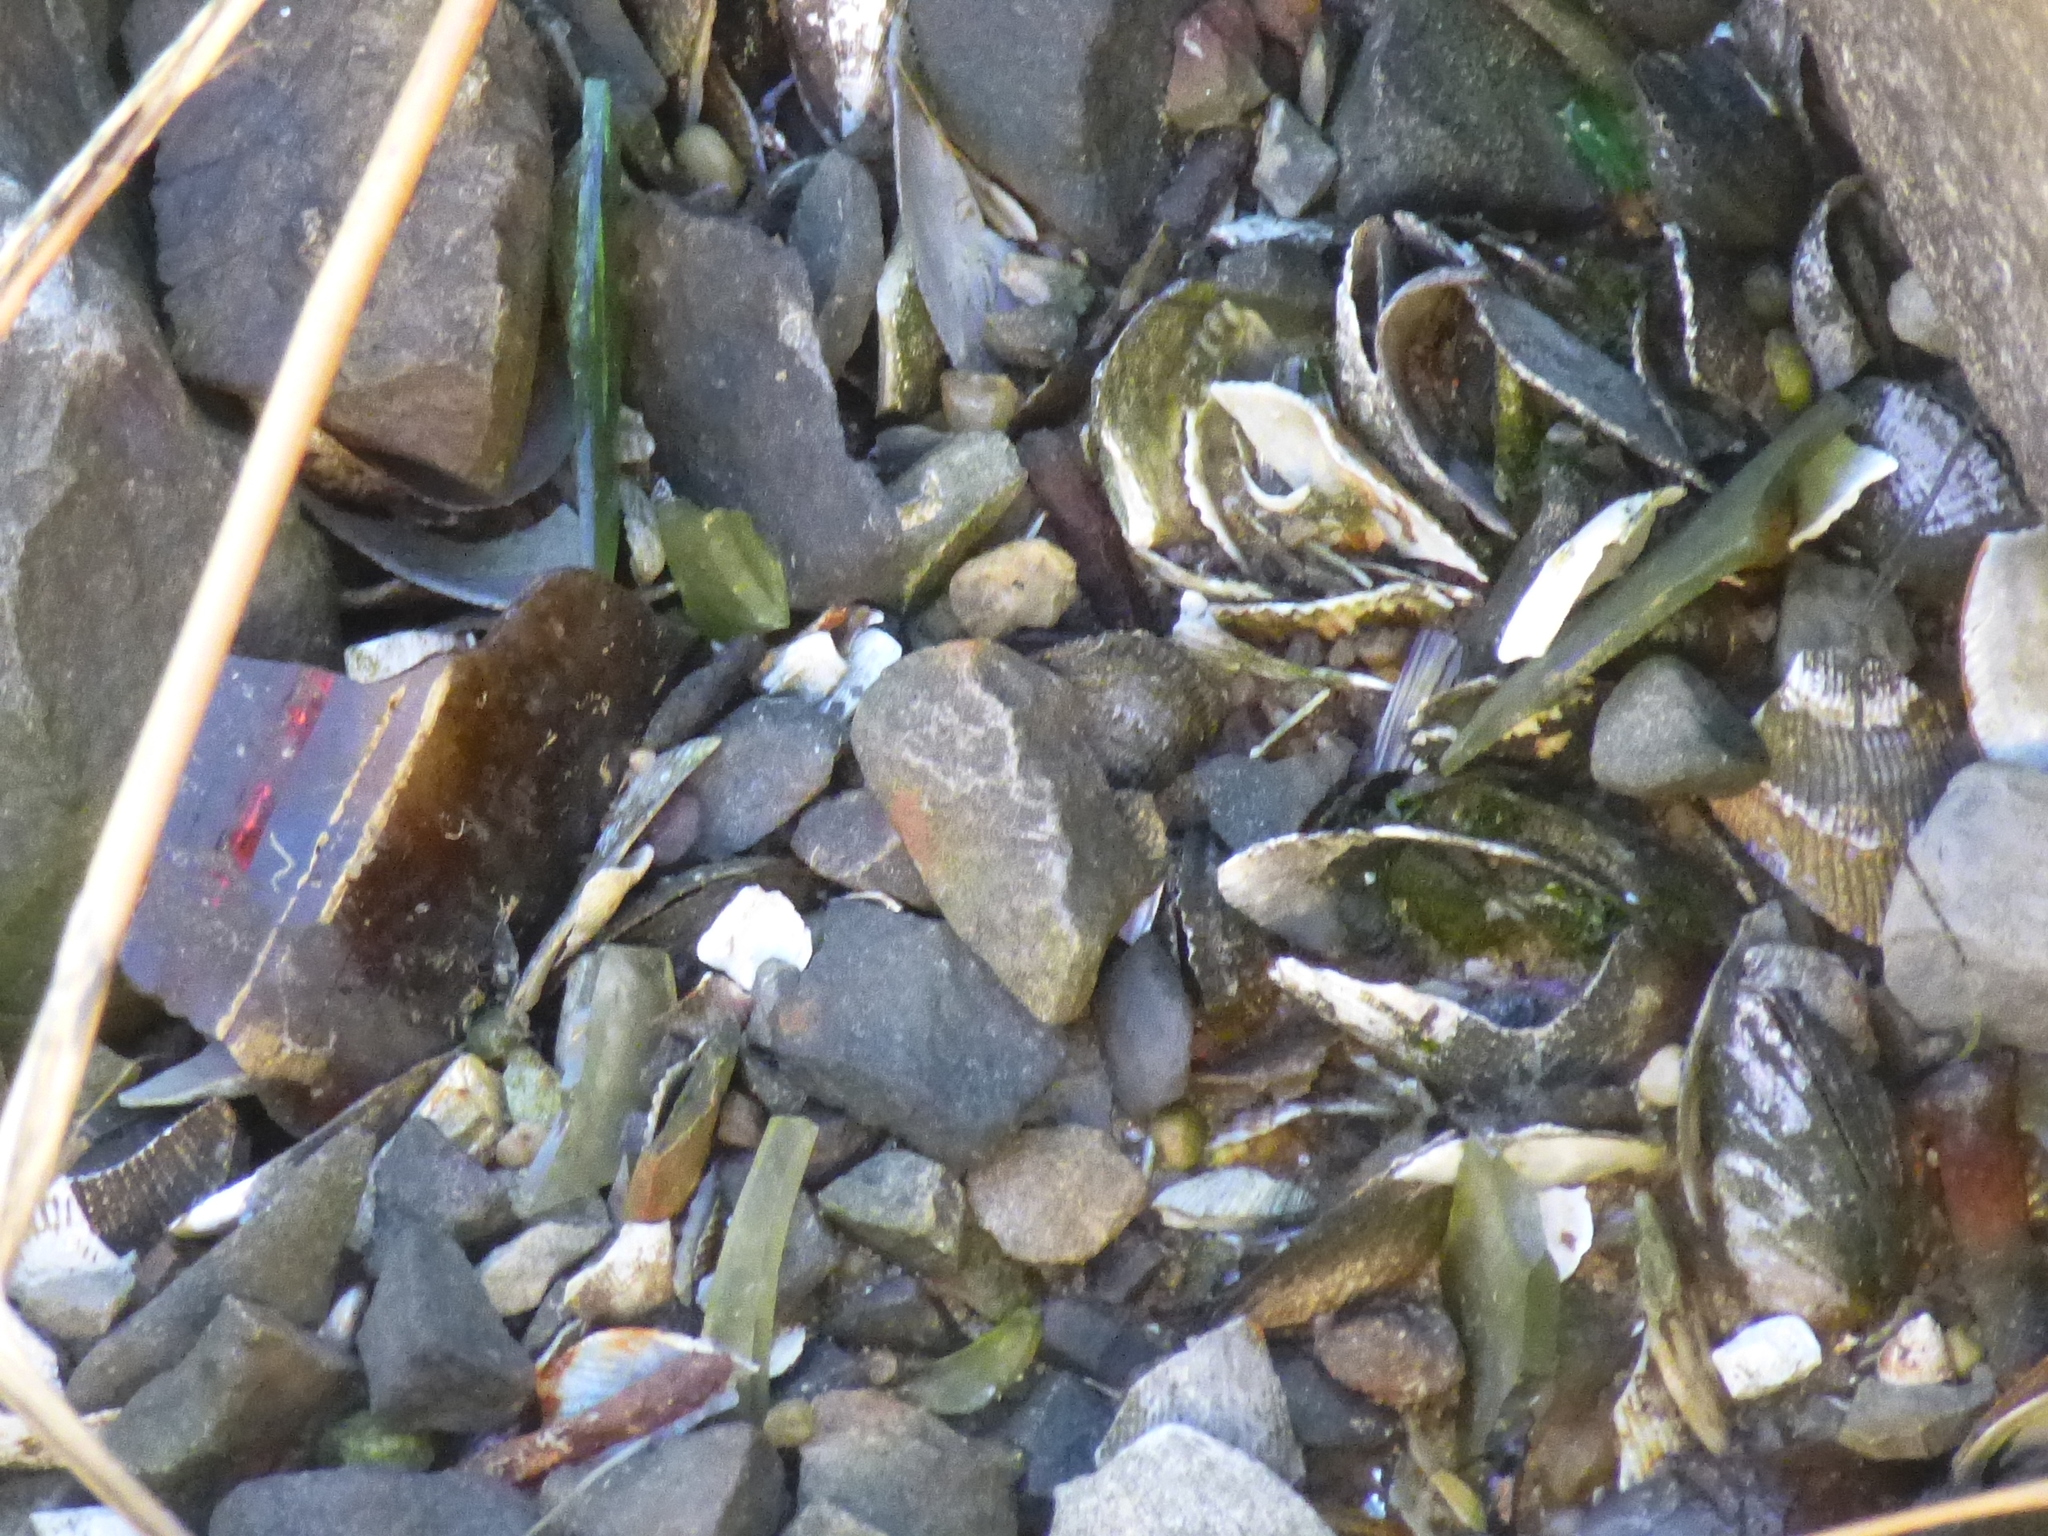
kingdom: Animalia
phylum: Mollusca
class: Bivalvia
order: Mytilida
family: Mytilidae
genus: Geukensia
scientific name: Geukensia demissa
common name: Ribbed mussel
